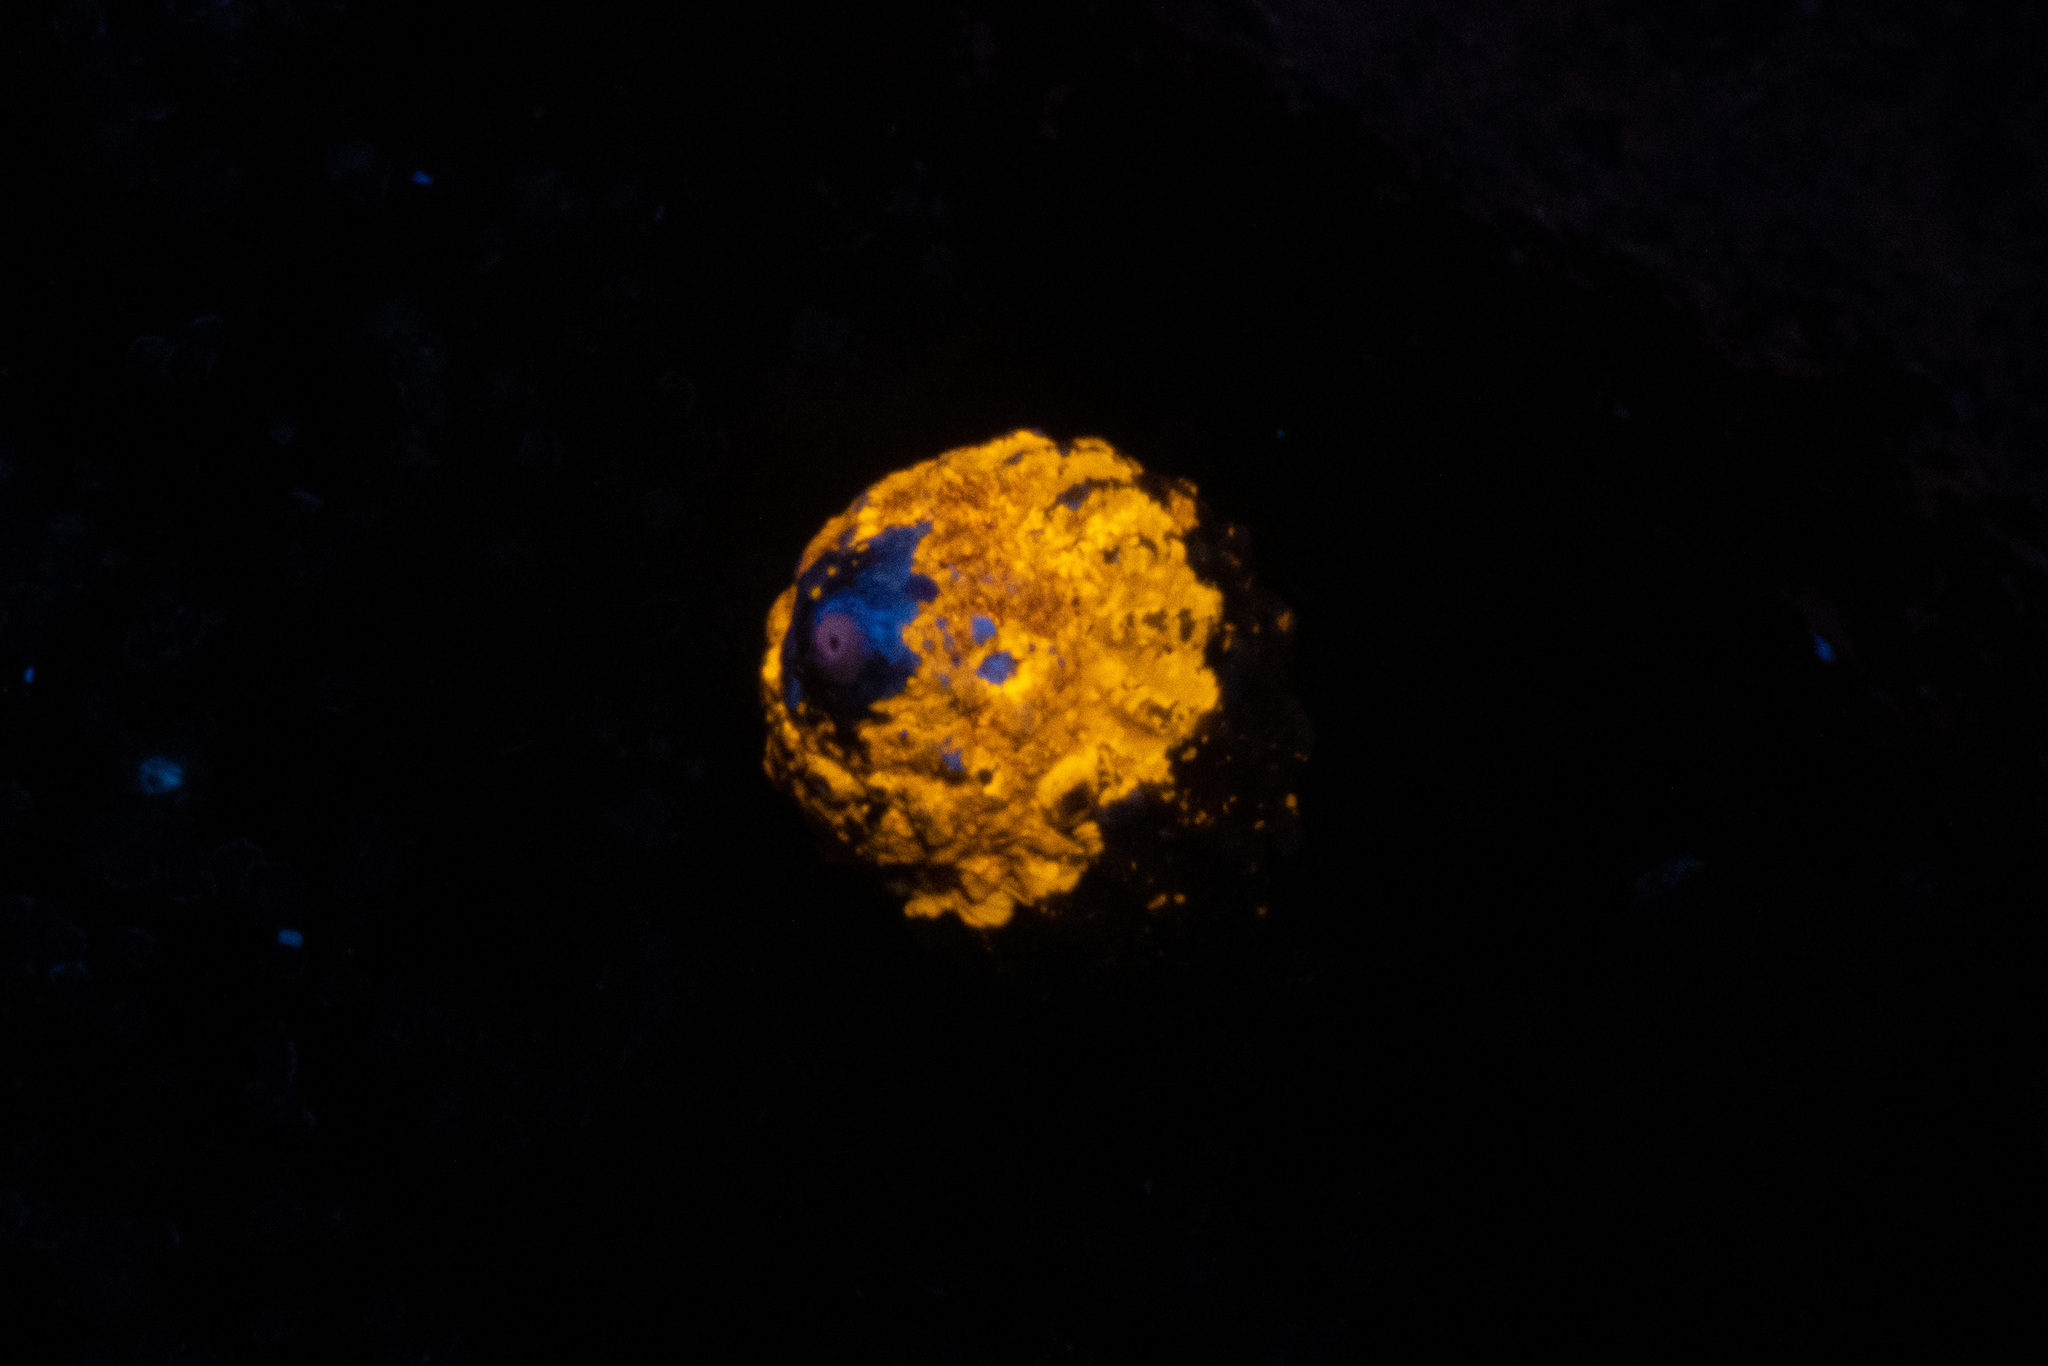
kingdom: Animalia
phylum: Mollusca
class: Gastropoda
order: Trochida
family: Turbinidae
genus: Cookia
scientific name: Cookia sulcata
